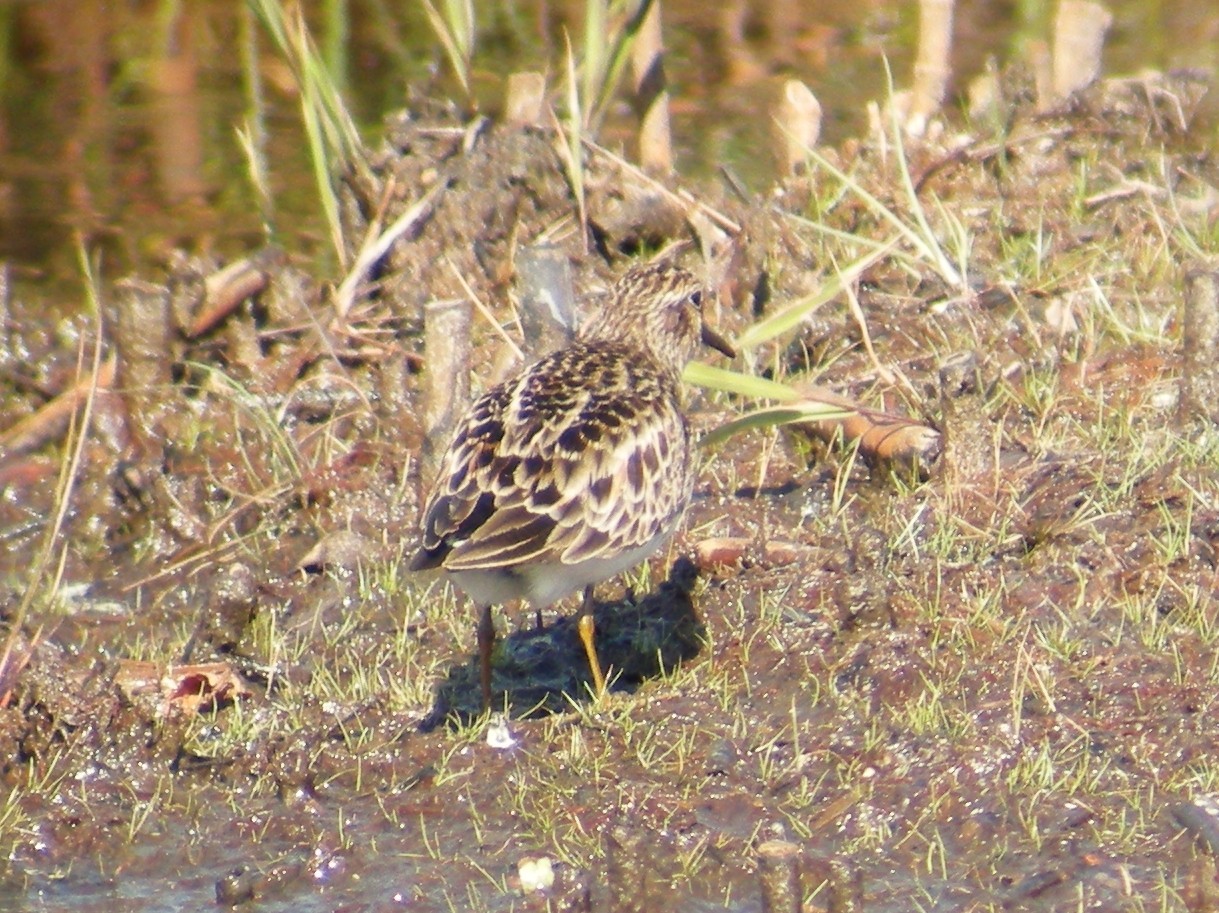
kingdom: Animalia
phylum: Chordata
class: Aves
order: Charadriiformes
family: Scolopacidae
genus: Calidris
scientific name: Calidris minutilla
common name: Least sandpiper
